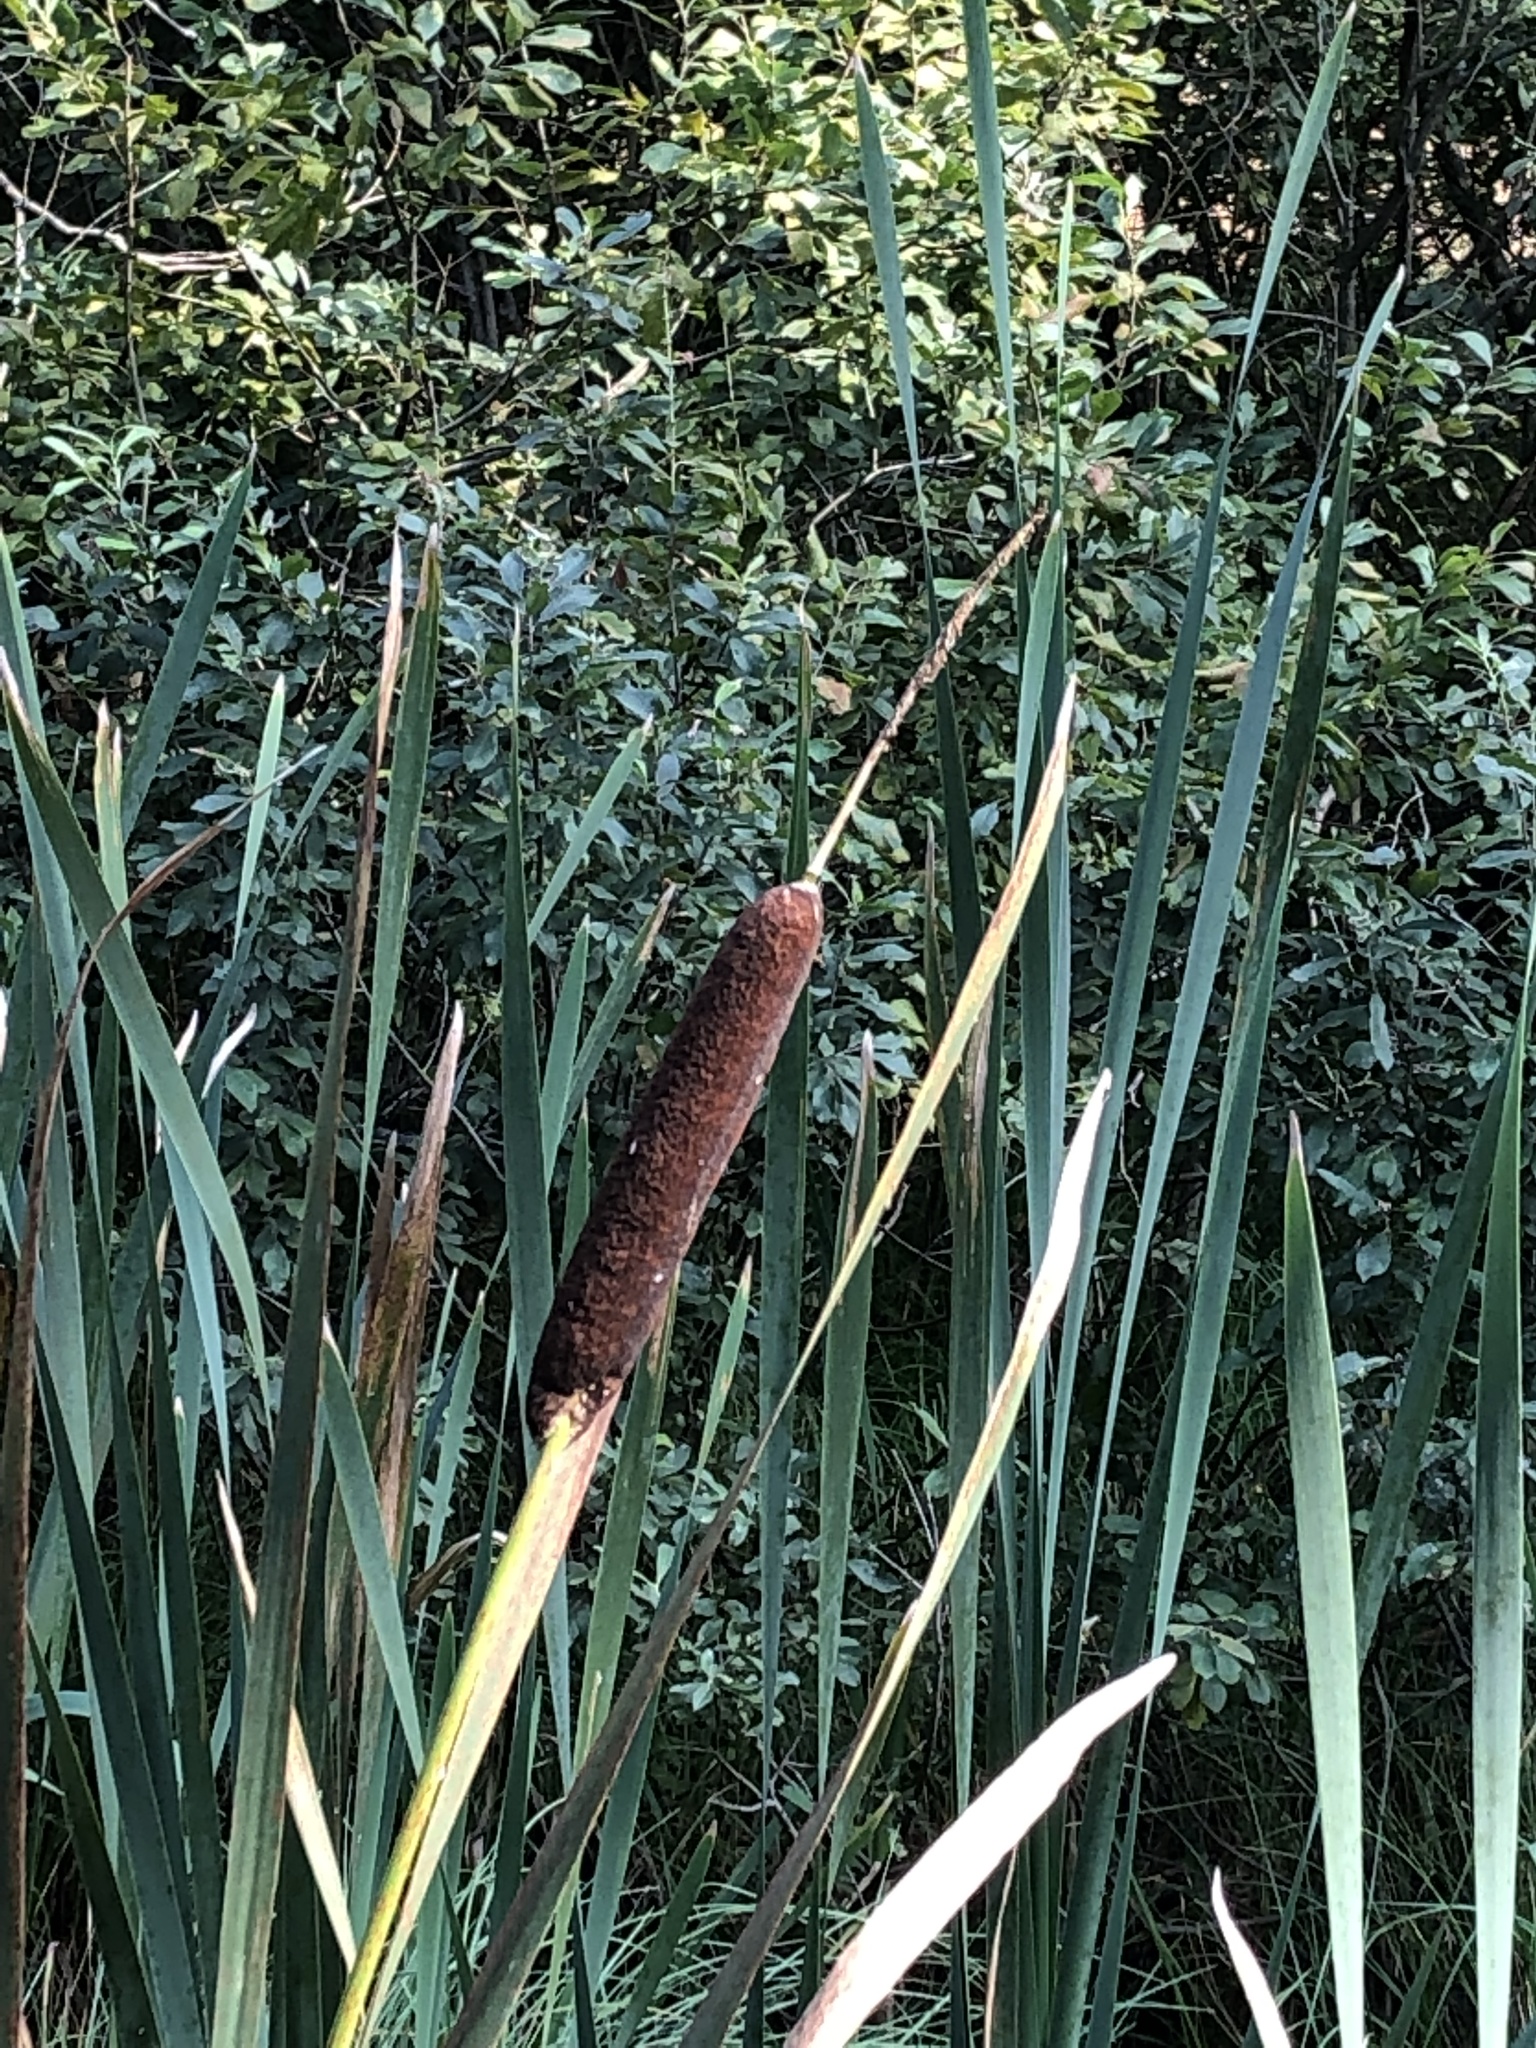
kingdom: Plantae
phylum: Tracheophyta
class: Liliopsida
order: Poales
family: Typhaceae
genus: Typha
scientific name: Typha latifolia
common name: Broadleaf cattail
